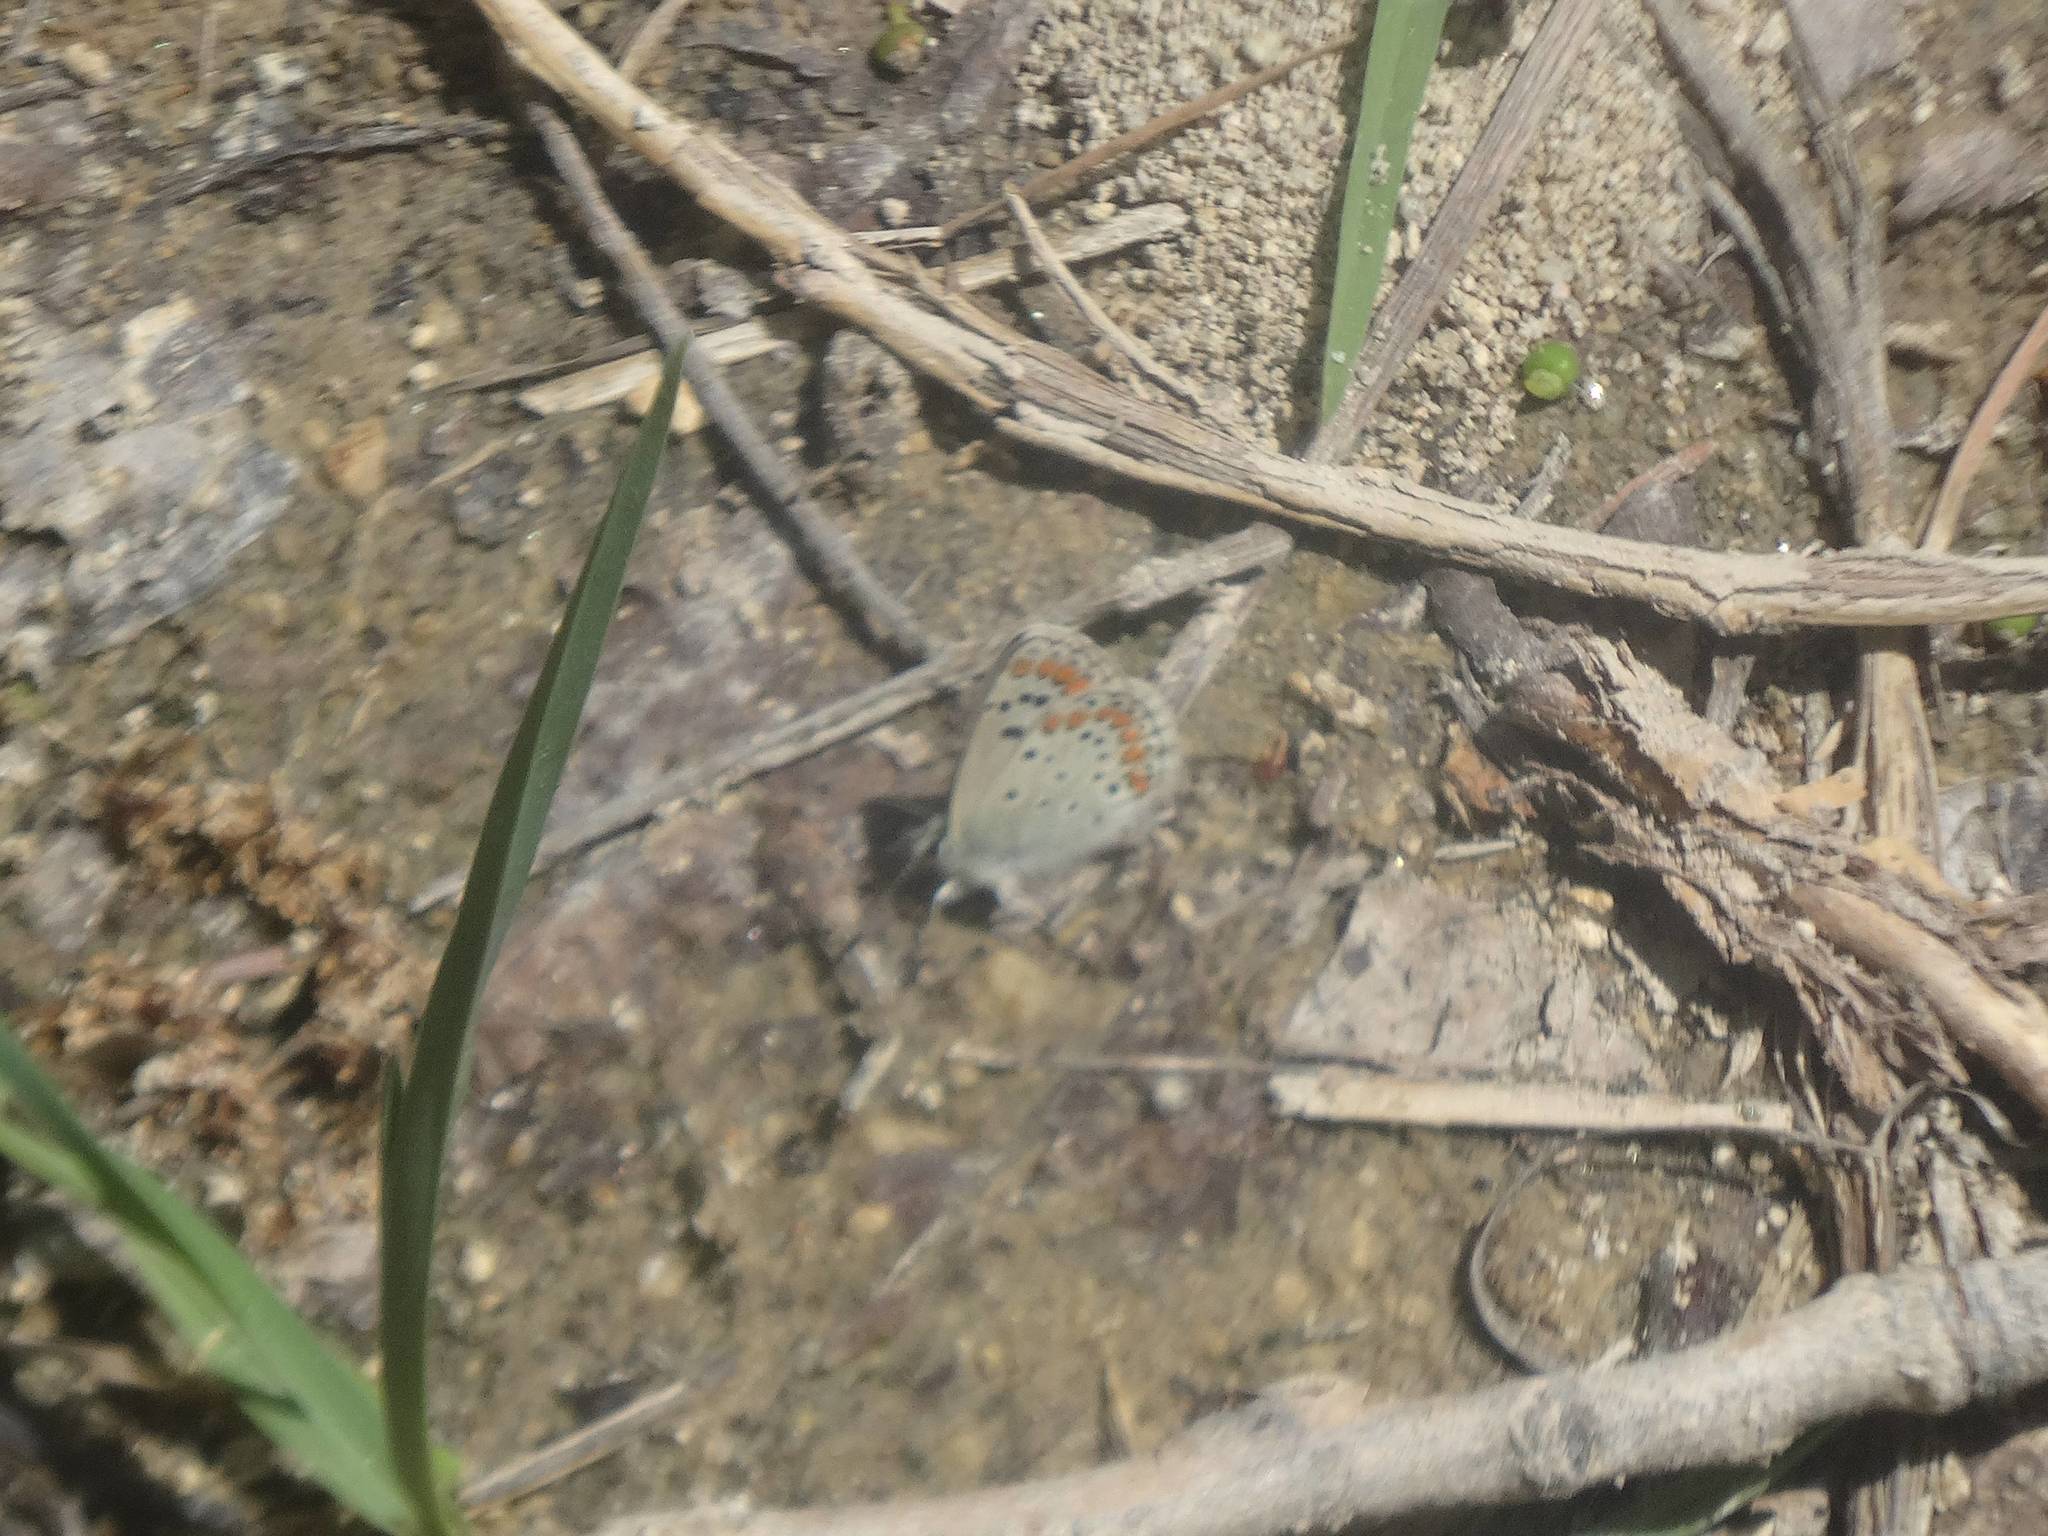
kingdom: Animalia
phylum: Arthropoda
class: Insecta
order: Lepidoptera
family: Lycaenidae
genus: Aricia
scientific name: Aricia agestis
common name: Brown argus
